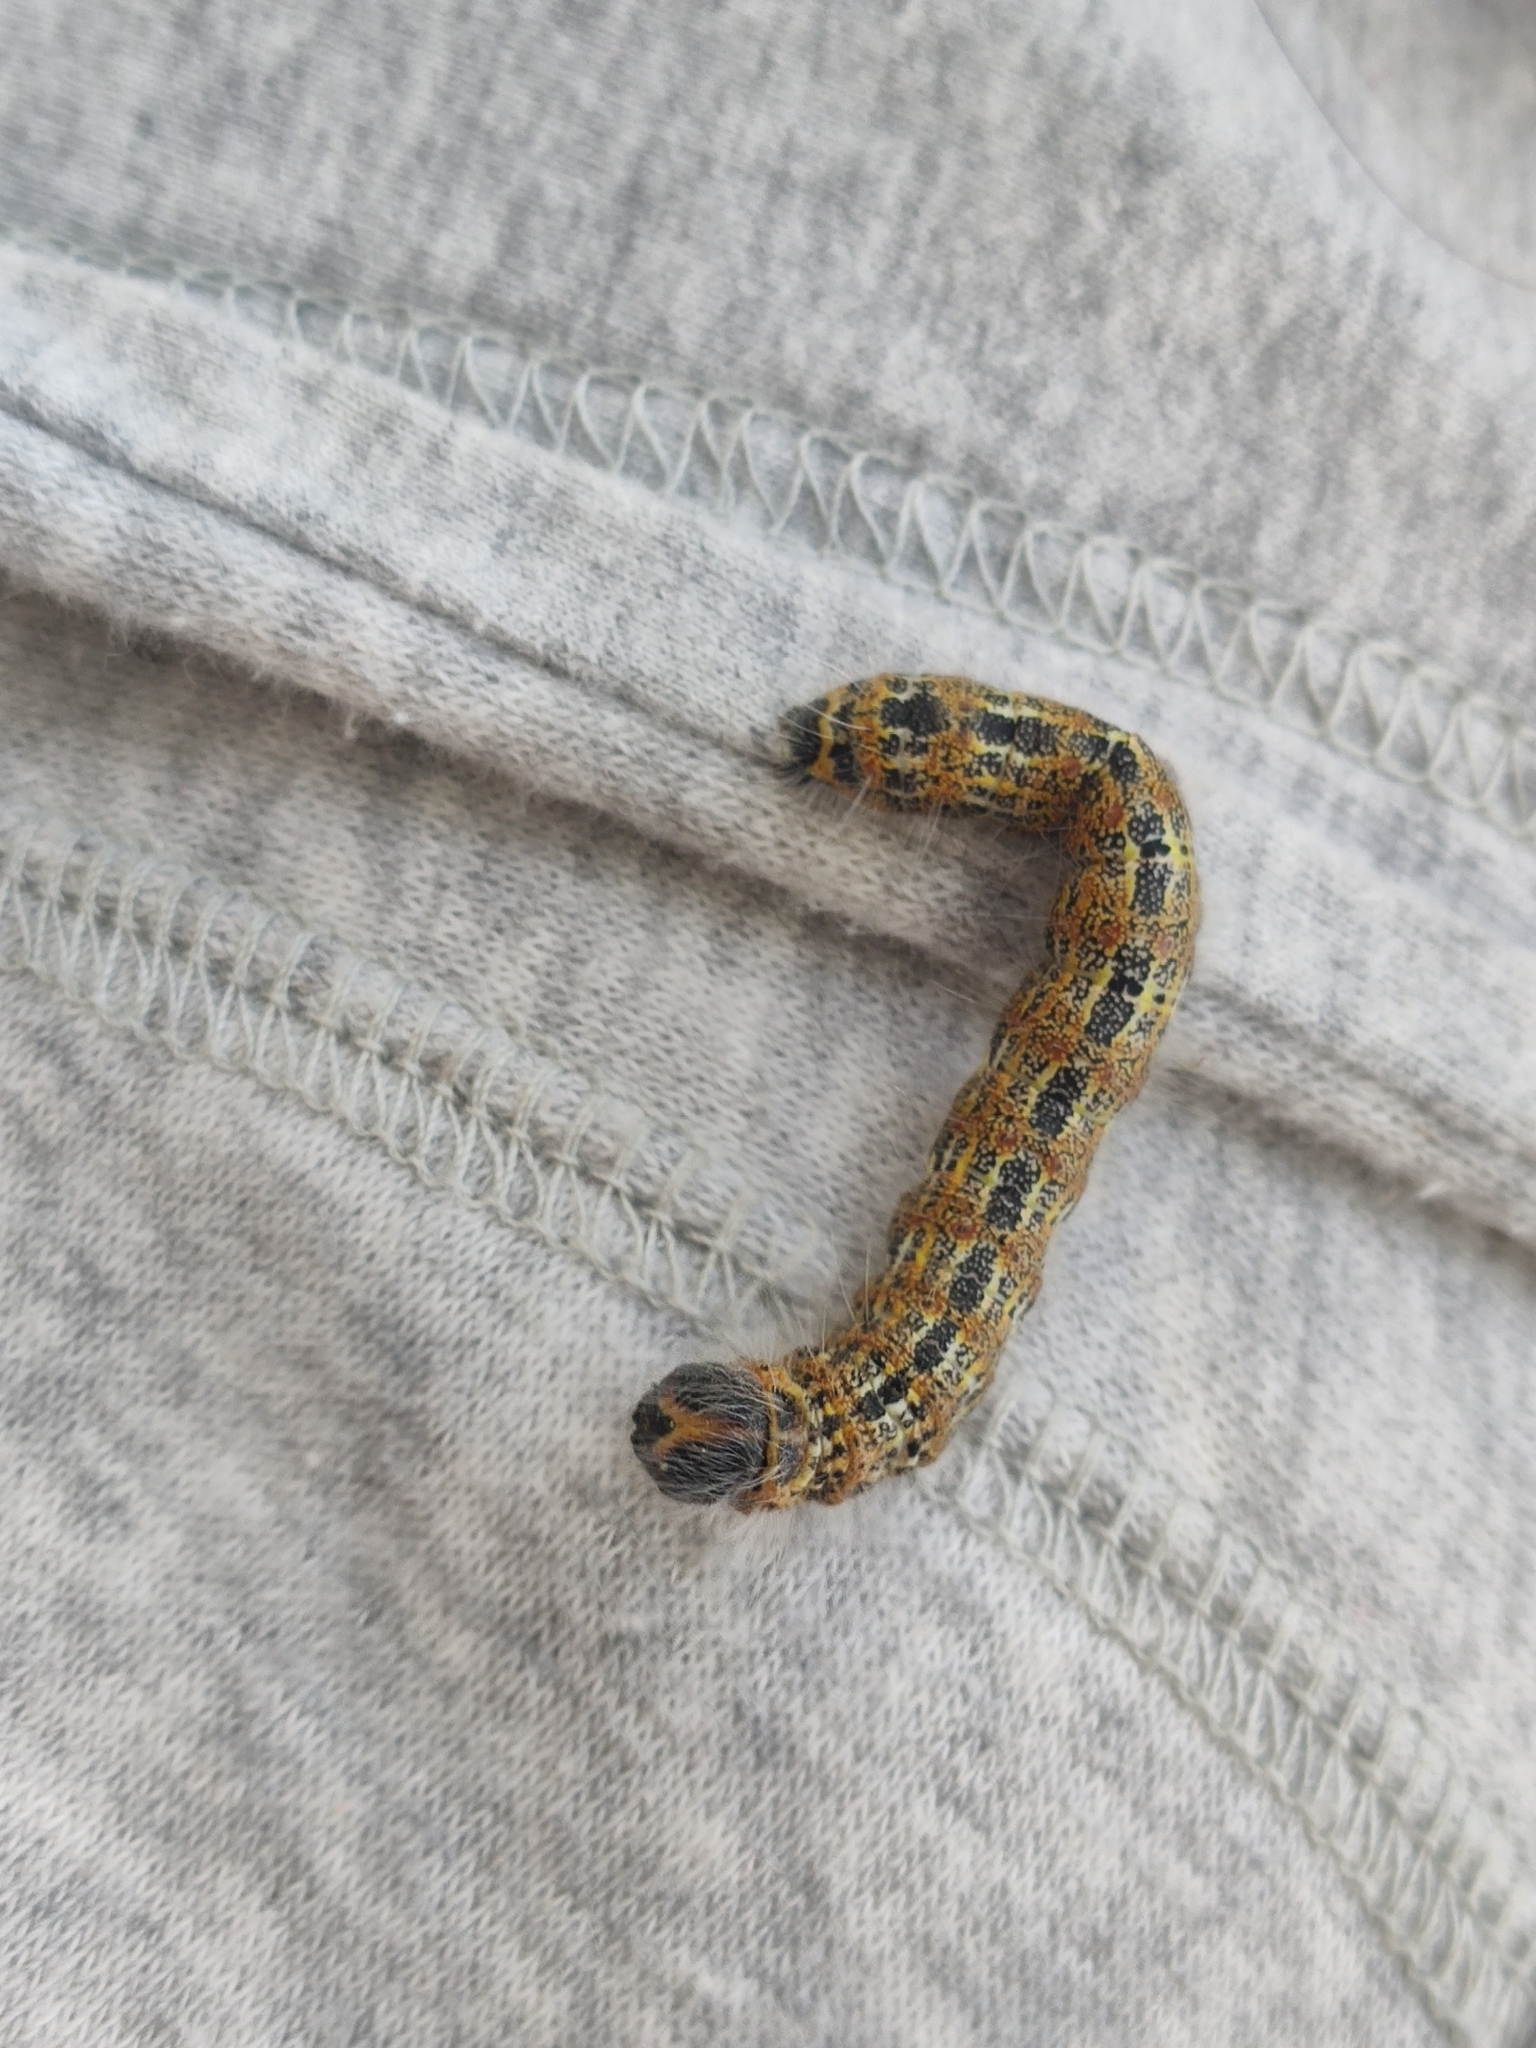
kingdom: Animalia
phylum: Arthropoda
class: Insecta
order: Lepidoptera
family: Notodontidae
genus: Phalera
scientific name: Phalera bucephala
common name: Buff-tip
